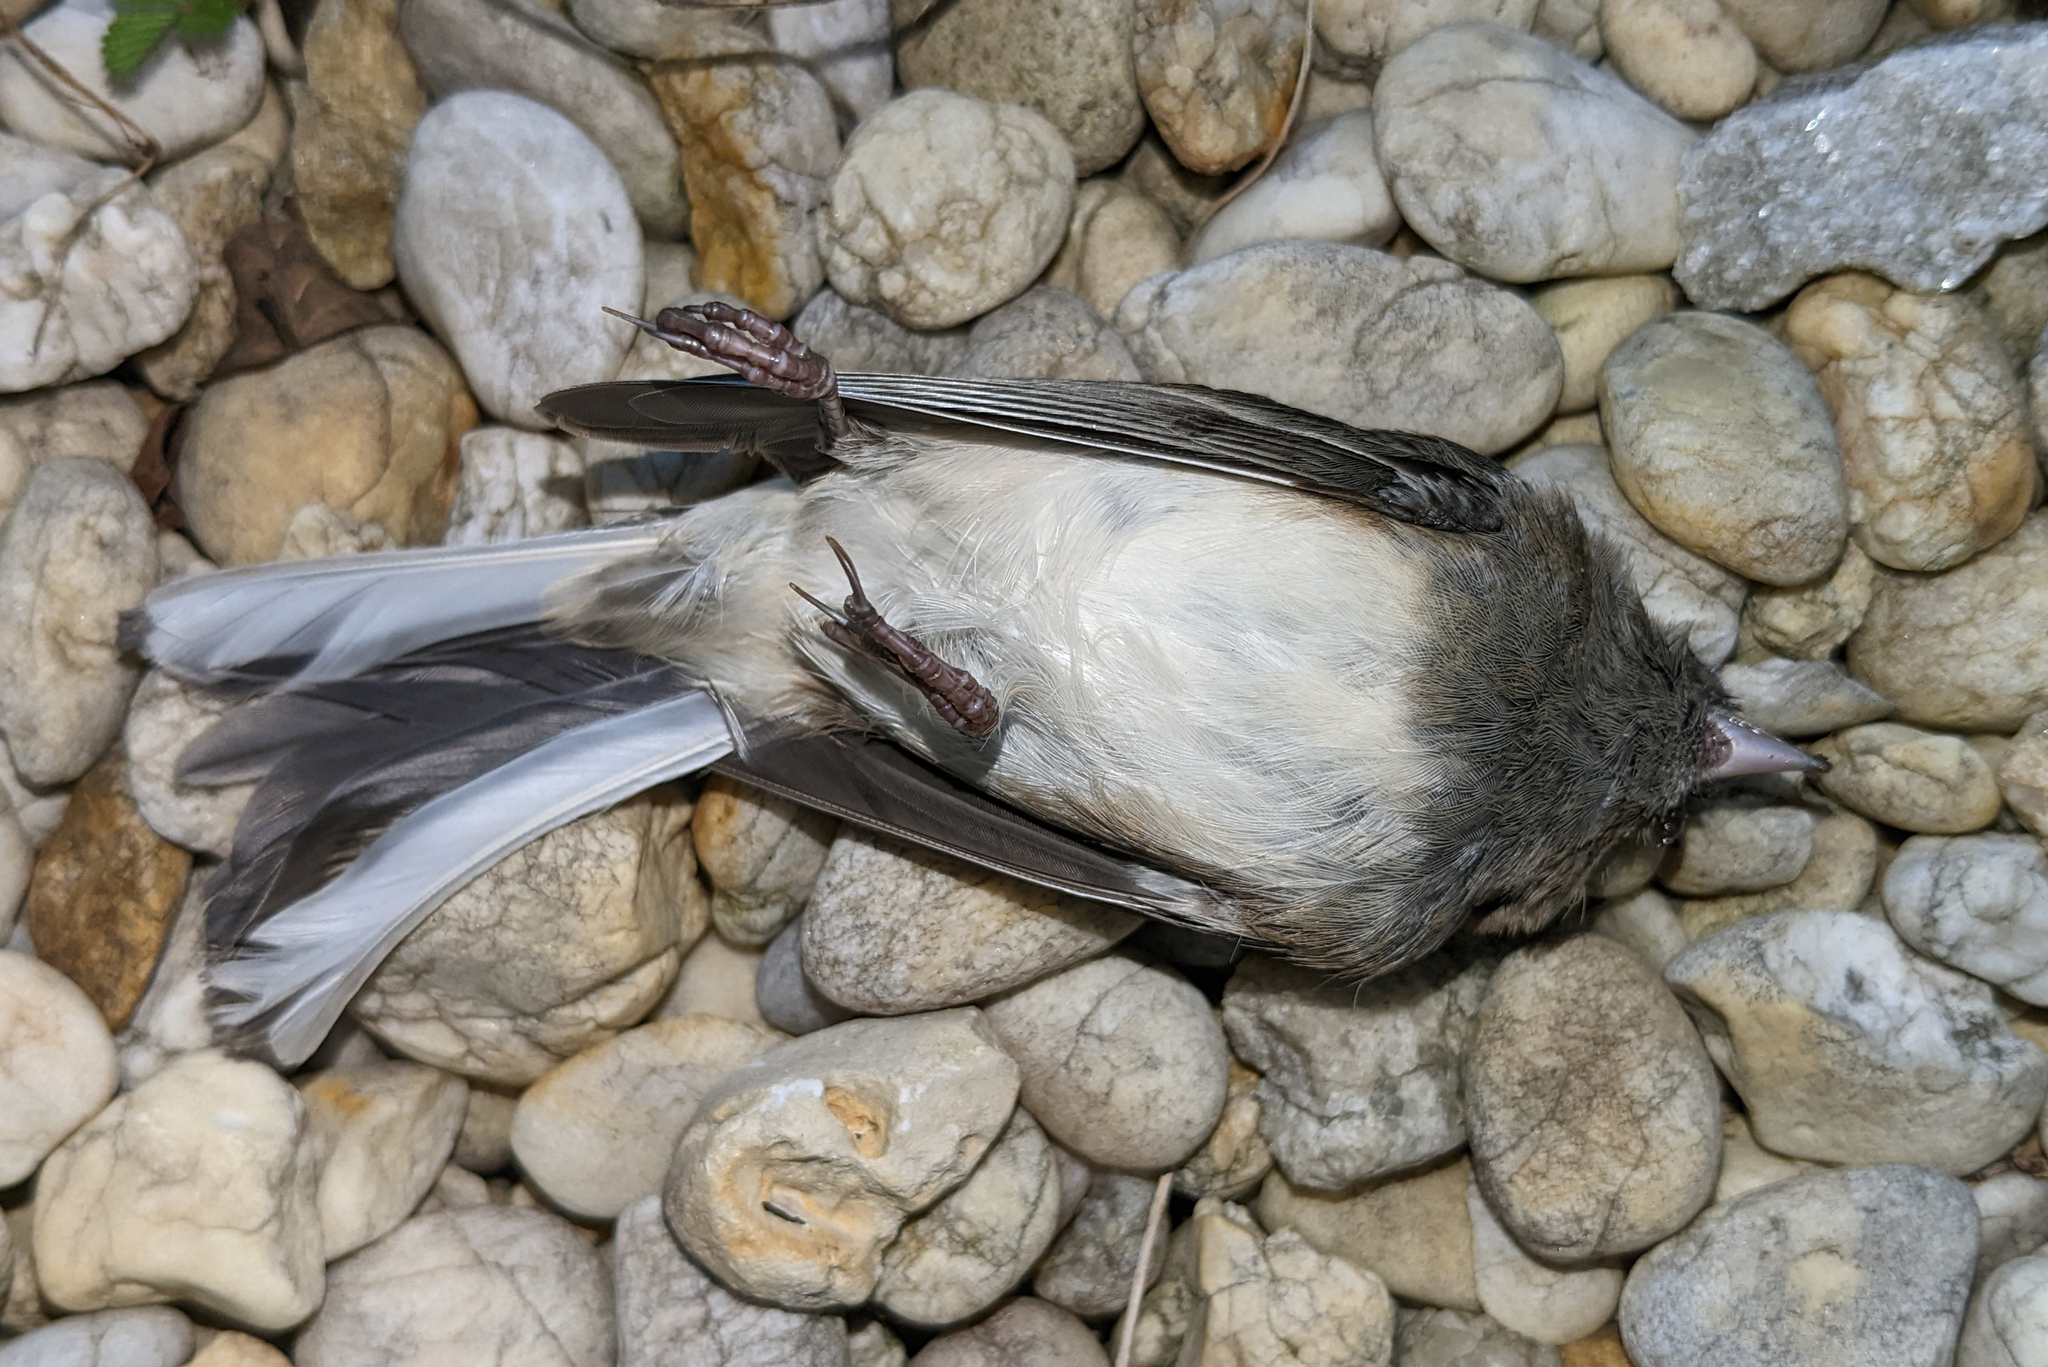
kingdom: Animalia
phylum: Chordata
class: Aves
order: Passeriformes
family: Passerellidae
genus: Junco
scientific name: Junco hyemalis
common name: Dark-eyed junco
